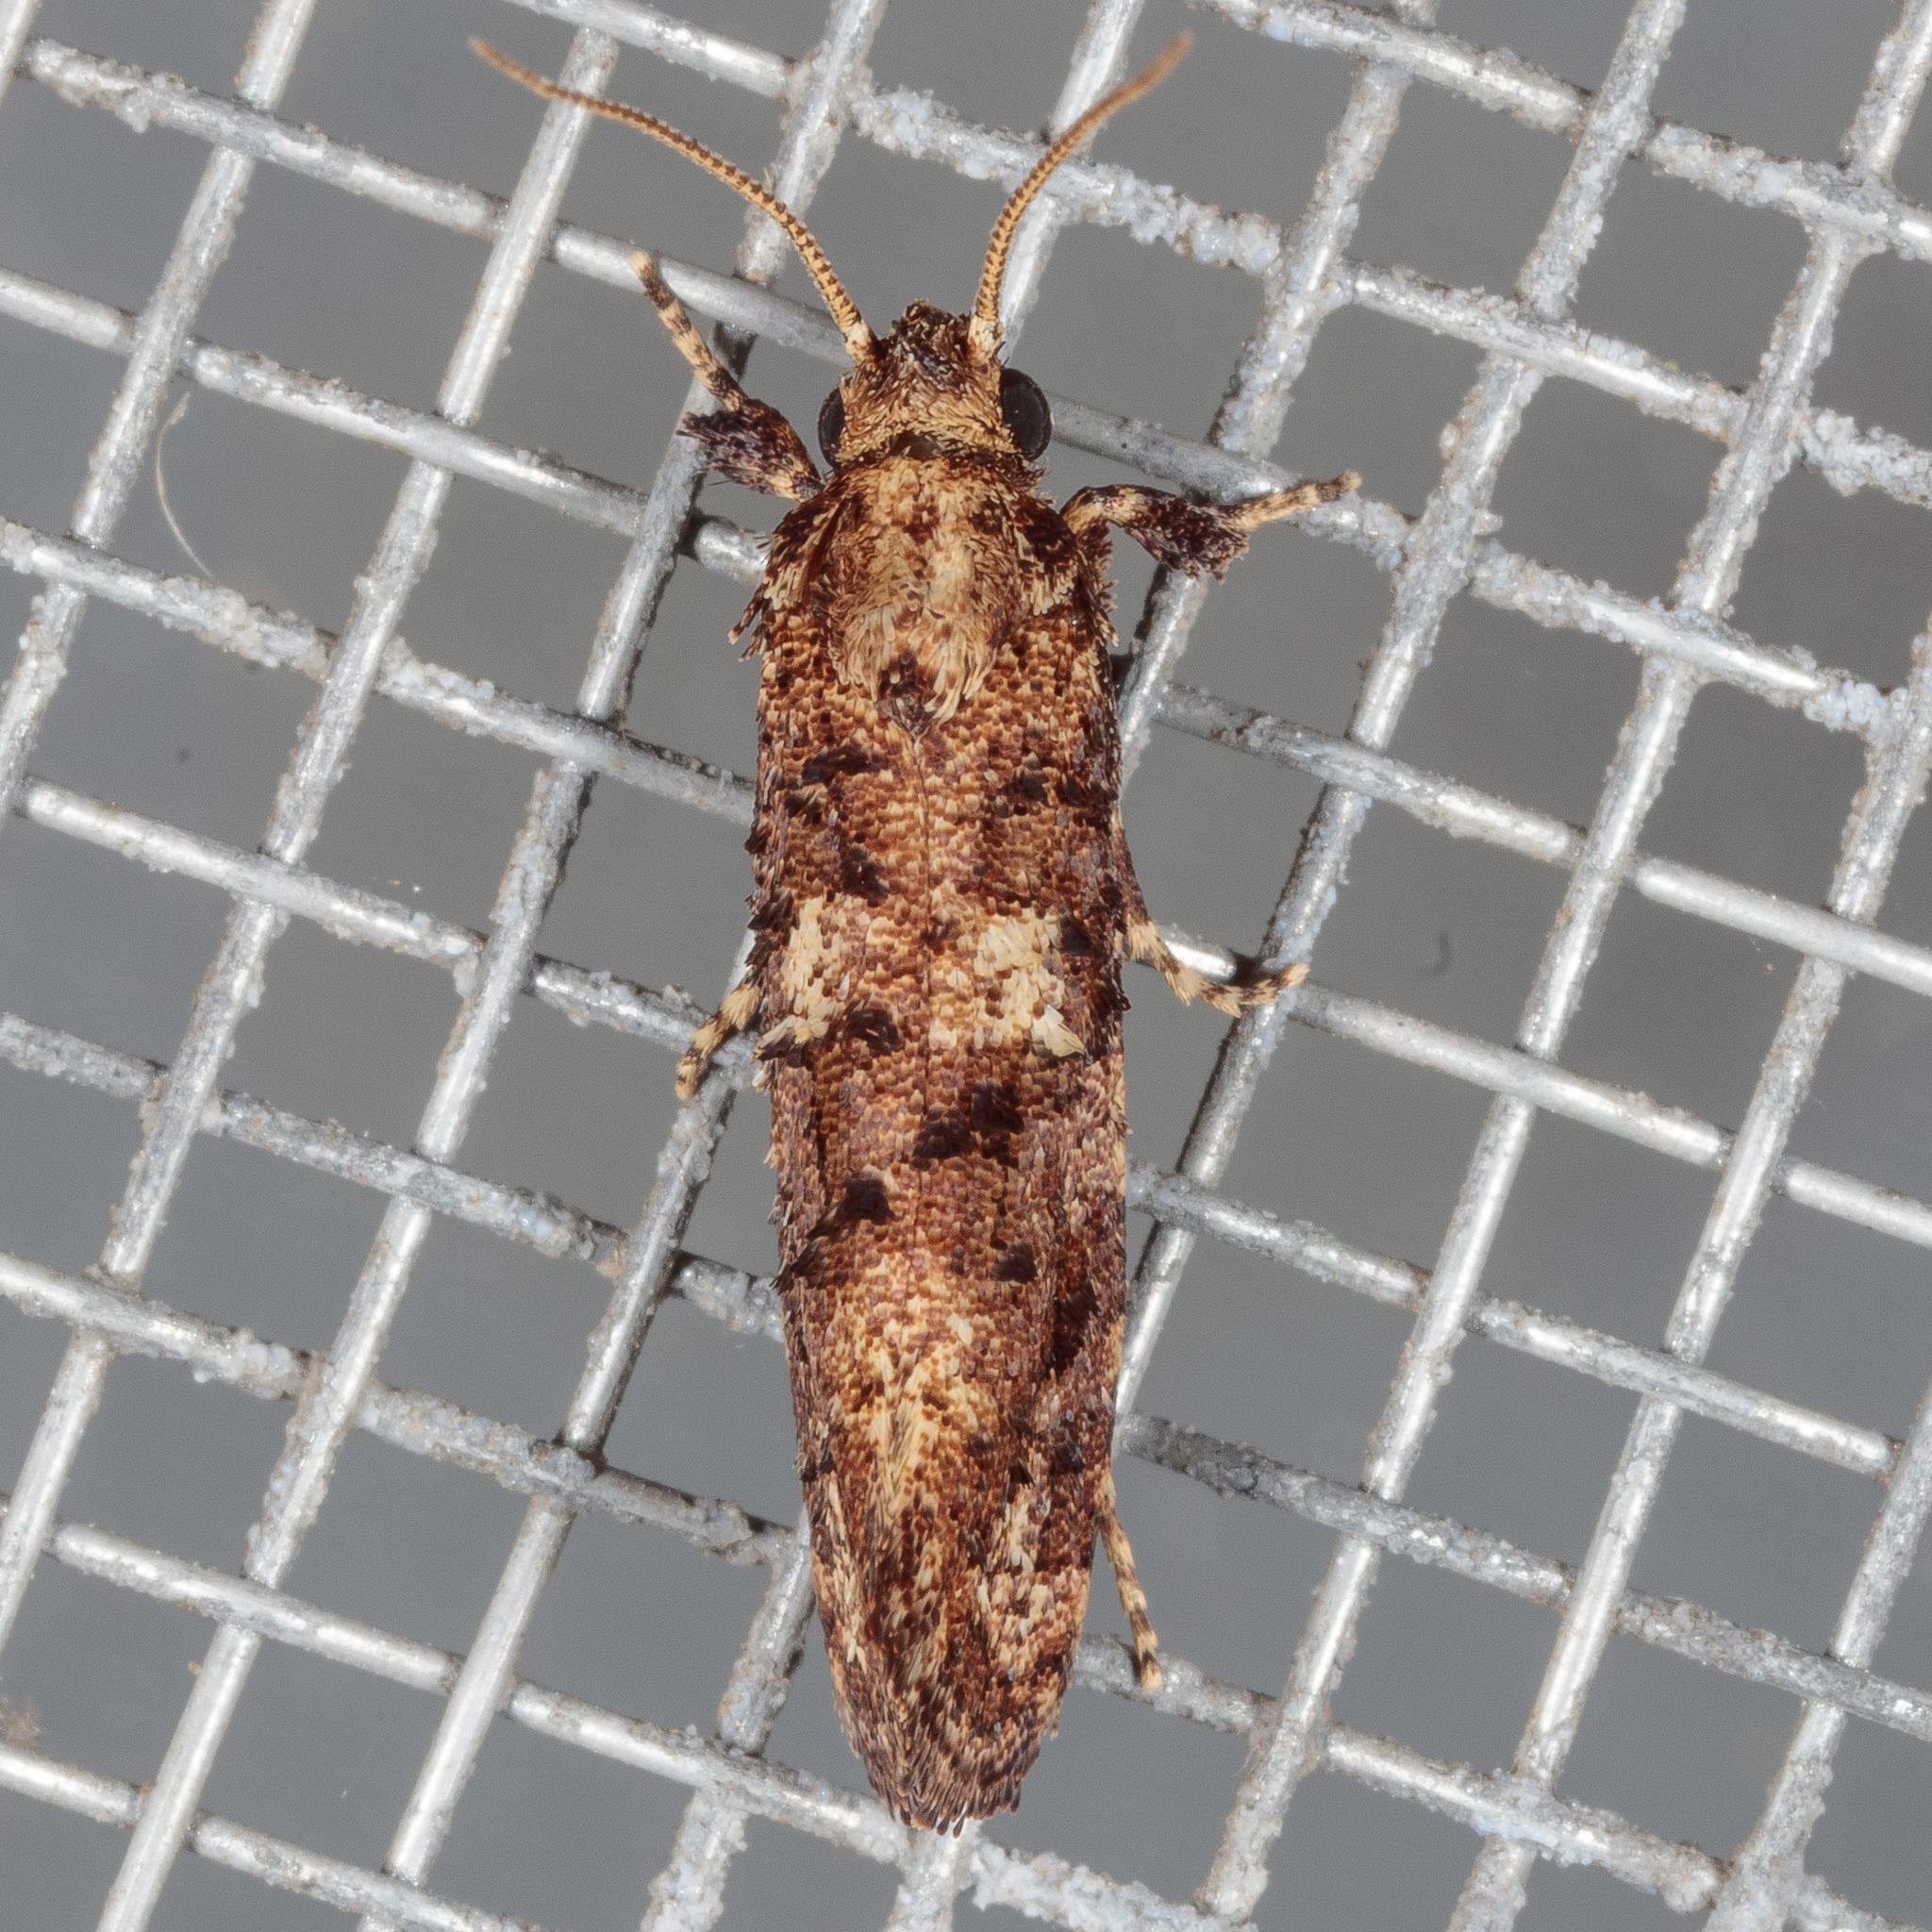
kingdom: Animalia
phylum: Arthropoda
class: Insecta
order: Lepidoptera
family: Tineidae
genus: Acrolophus
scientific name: Acrolophus cressoni
